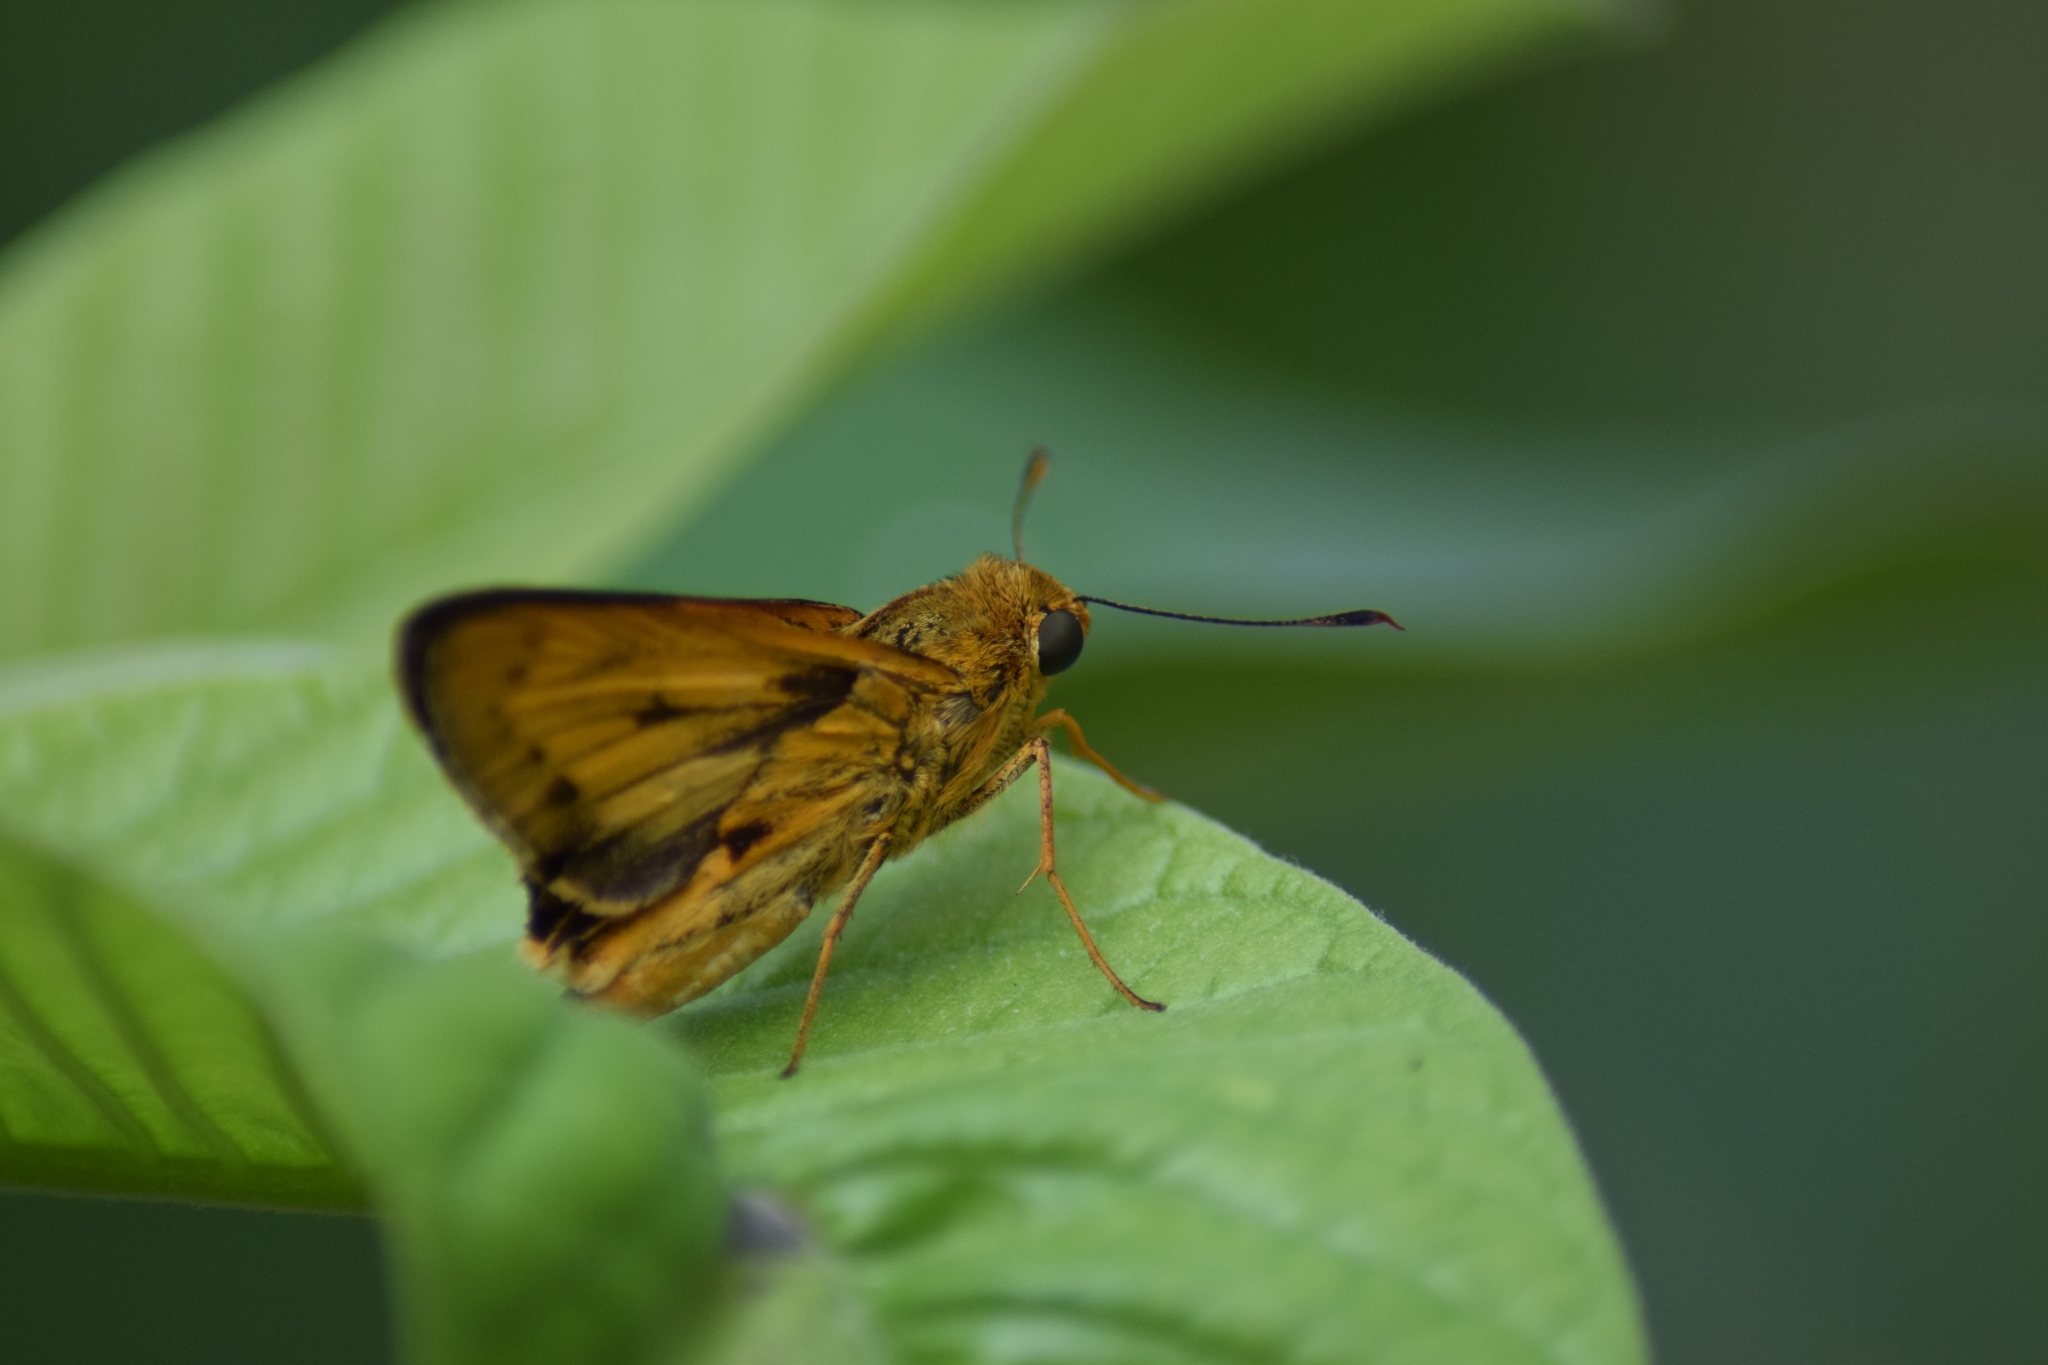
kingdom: Animalia
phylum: Arthropoda
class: Insecta
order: Lepidoptera
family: Hesperiidae
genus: Oriens
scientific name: Oriens goloides
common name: Smaller dartlet
